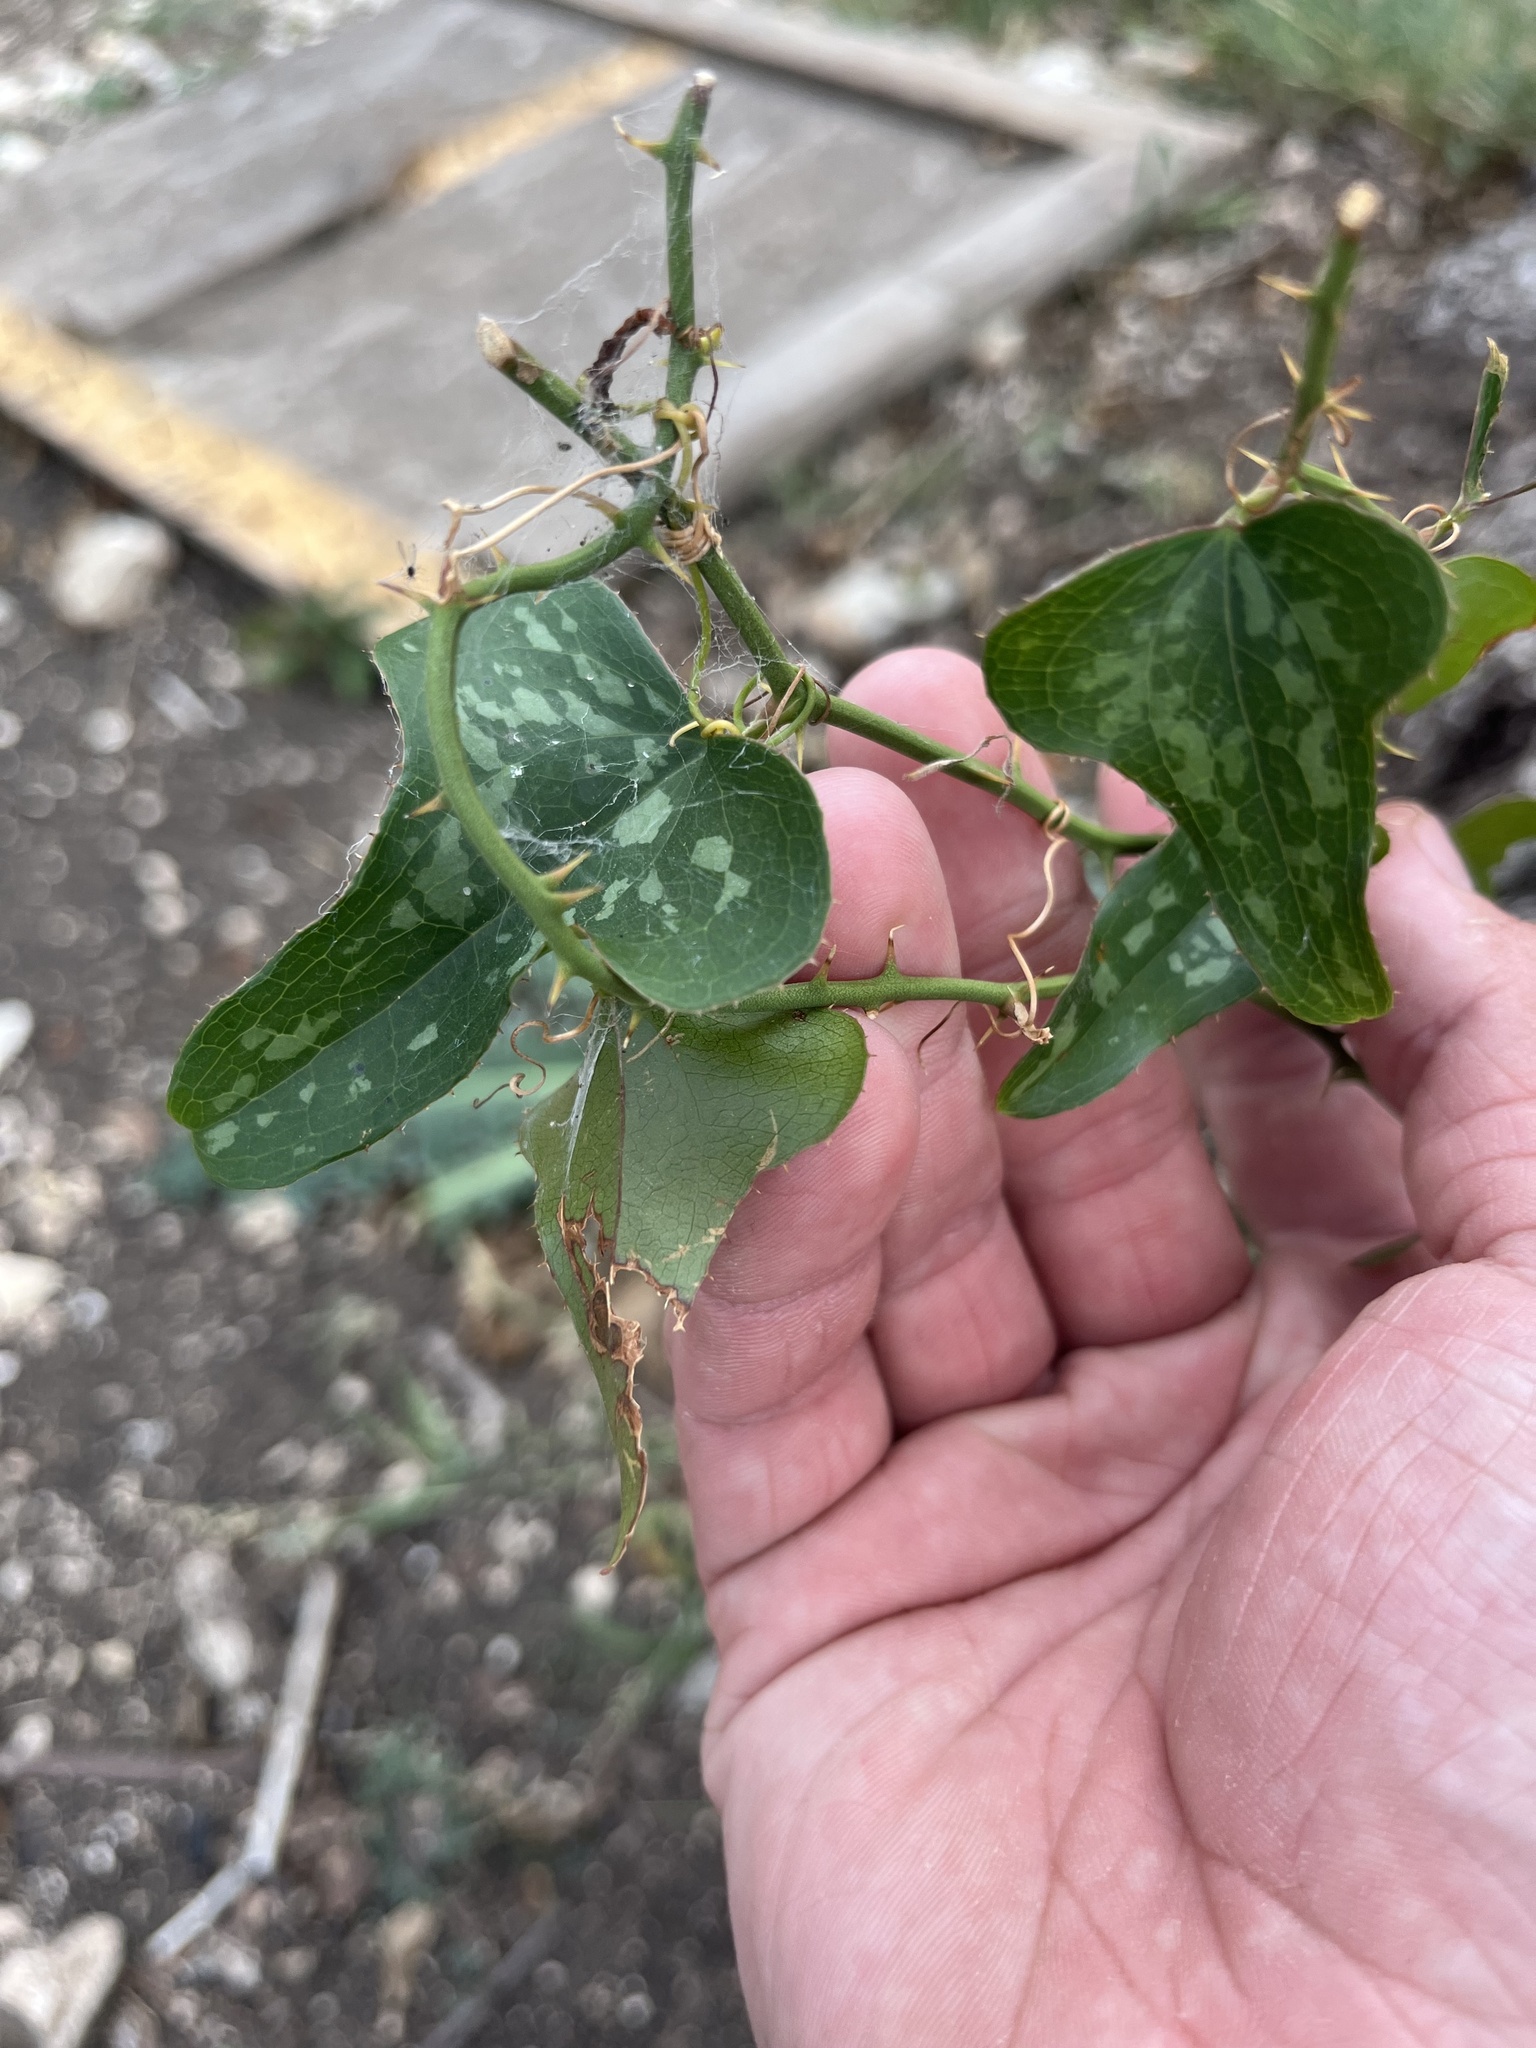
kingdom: Plantae
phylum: Tracheophyta
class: Liliopsida
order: Liliales
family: Smilacaceae
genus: Smilax
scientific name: Smilax bona-nox
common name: Catbrier
